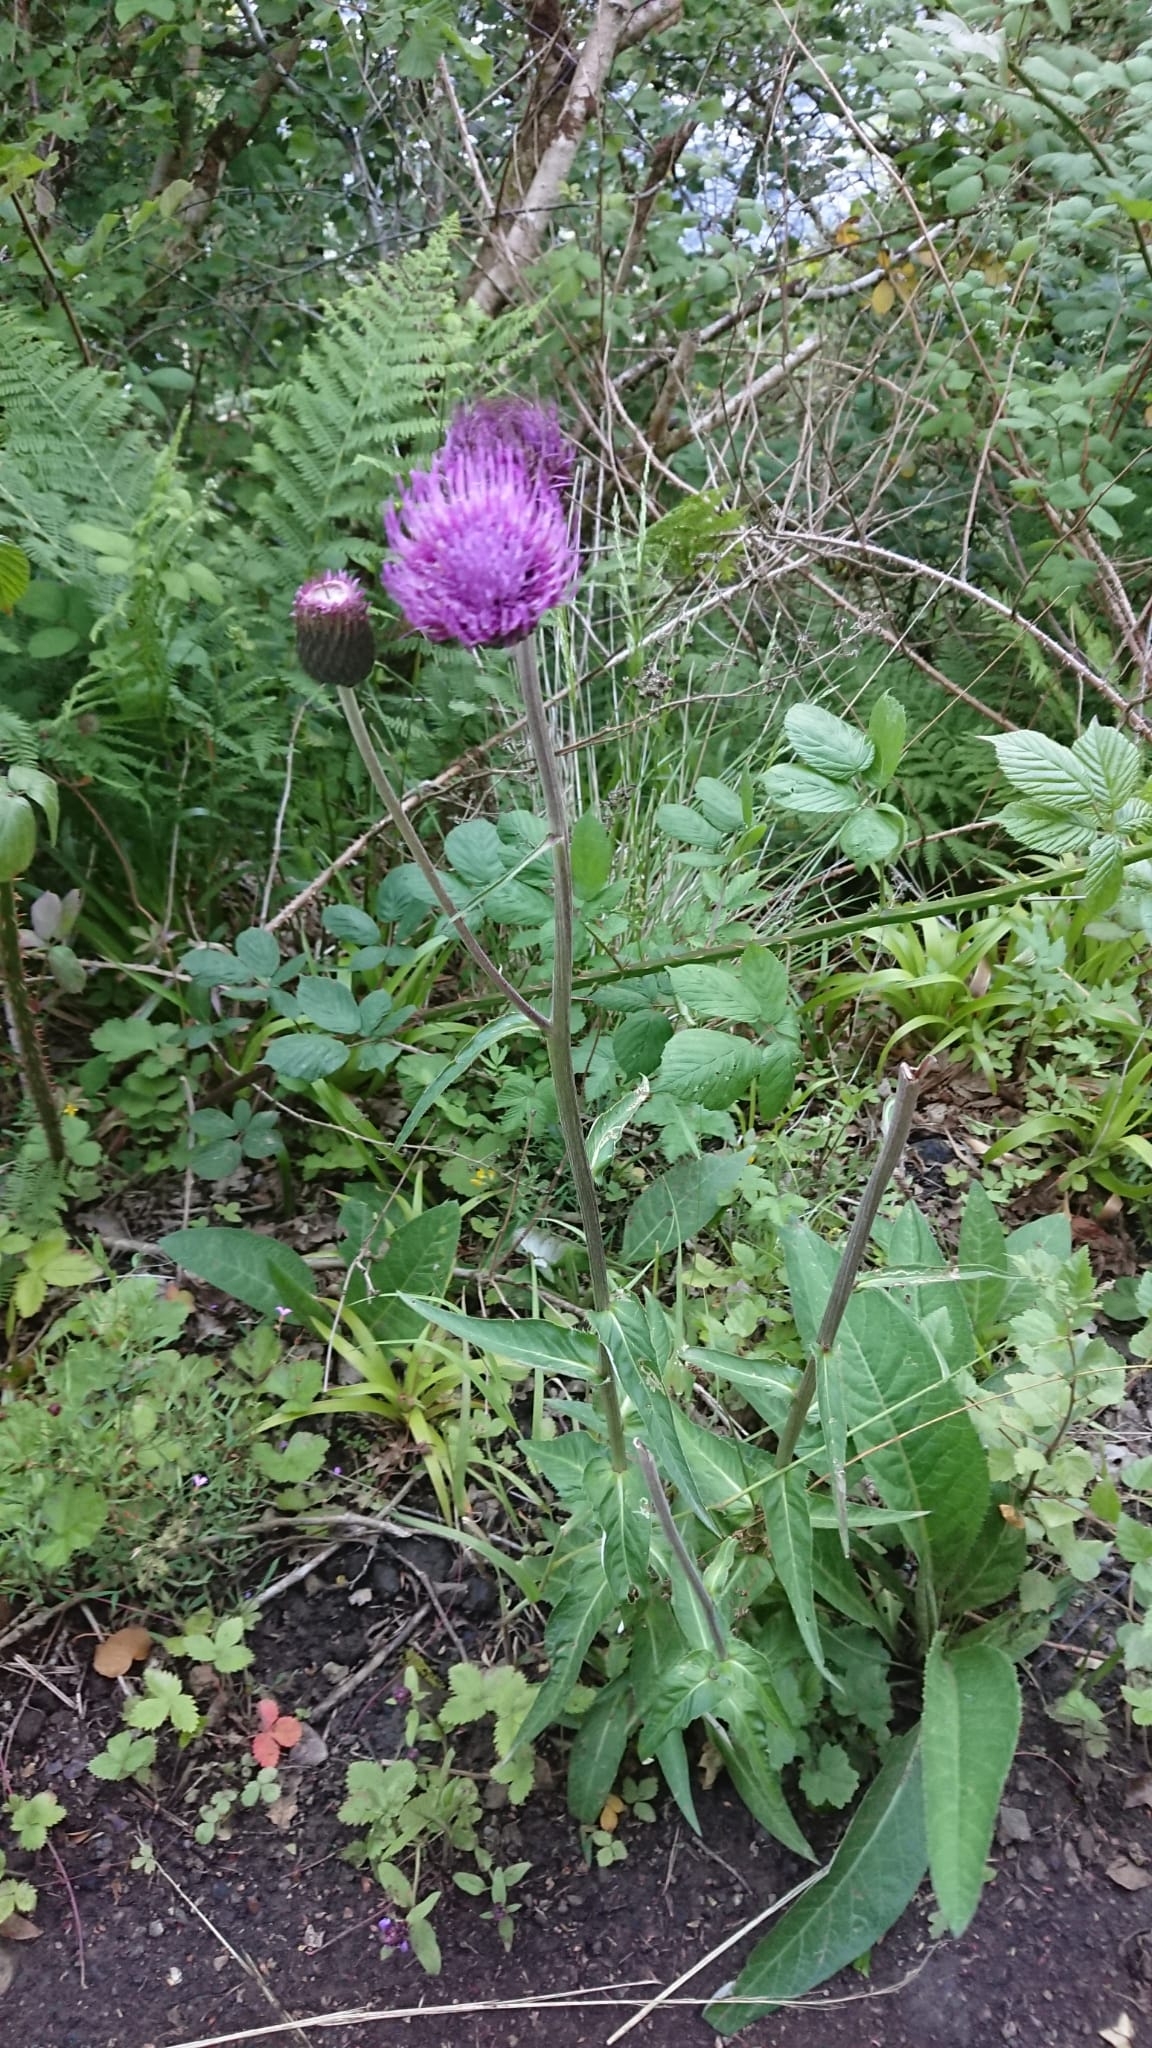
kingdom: Plantae
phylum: Tracheophyta
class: Magnoliopsida
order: Asterales
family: Asteraceae
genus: Cirsium
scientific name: Cirsium heterophyllum
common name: Melancholy thistle
